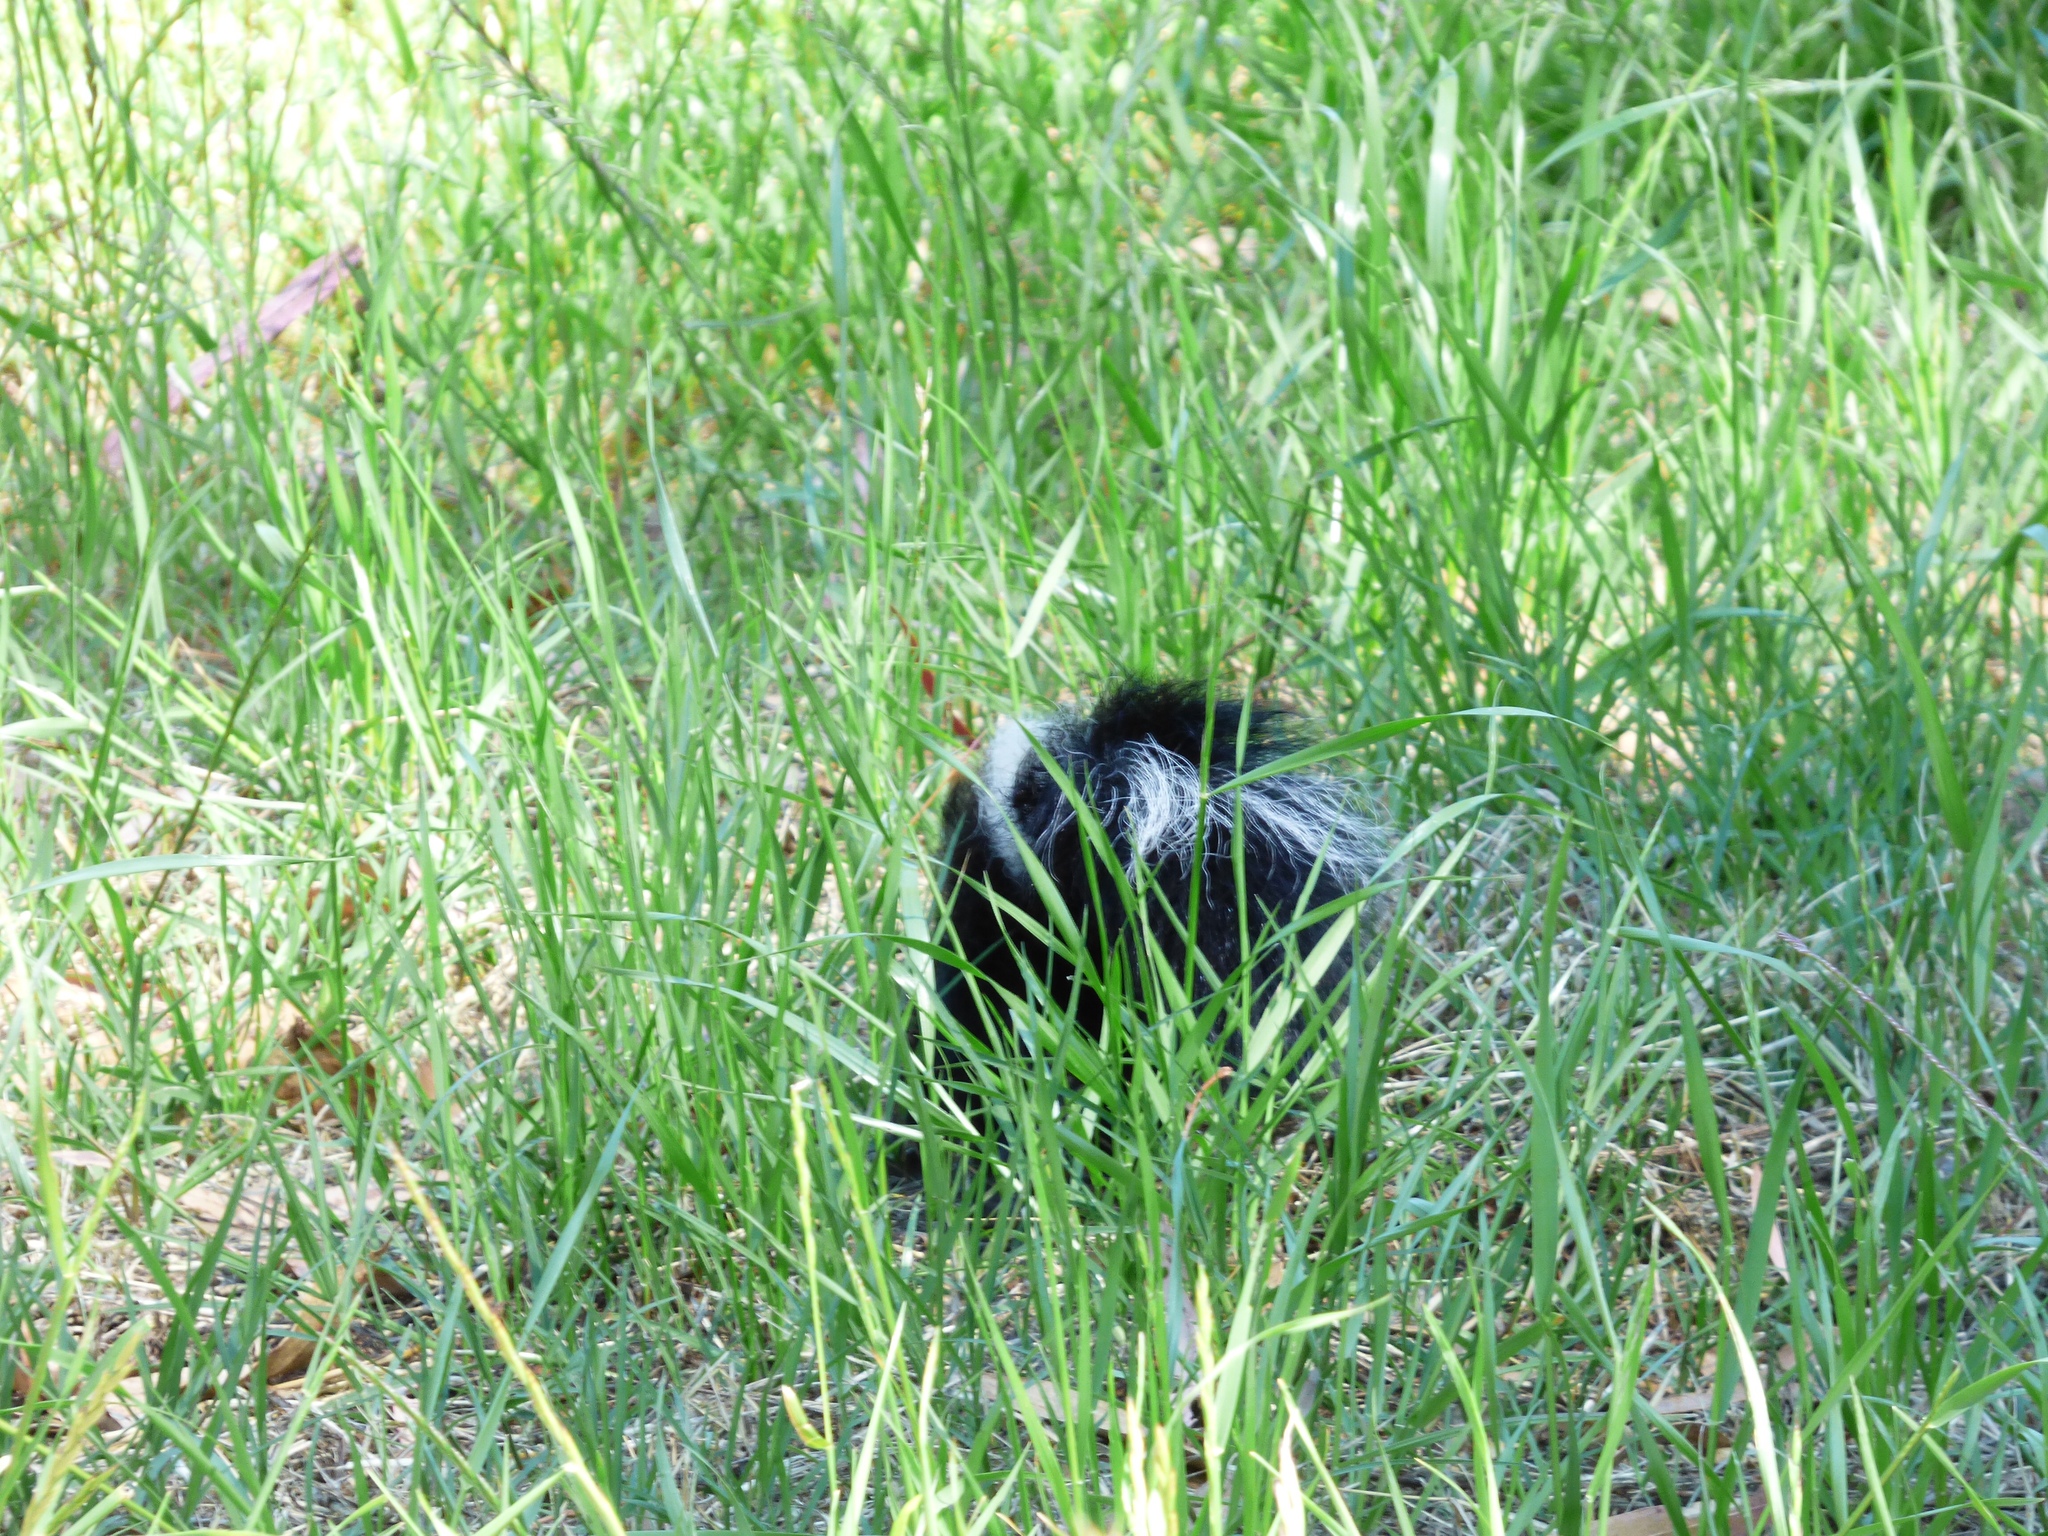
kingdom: Animalia
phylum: Chordata
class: Mammalia
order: Carnivora
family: Mephitidae
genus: Mephitis
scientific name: Mephitis mephitis
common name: Striped skunk
